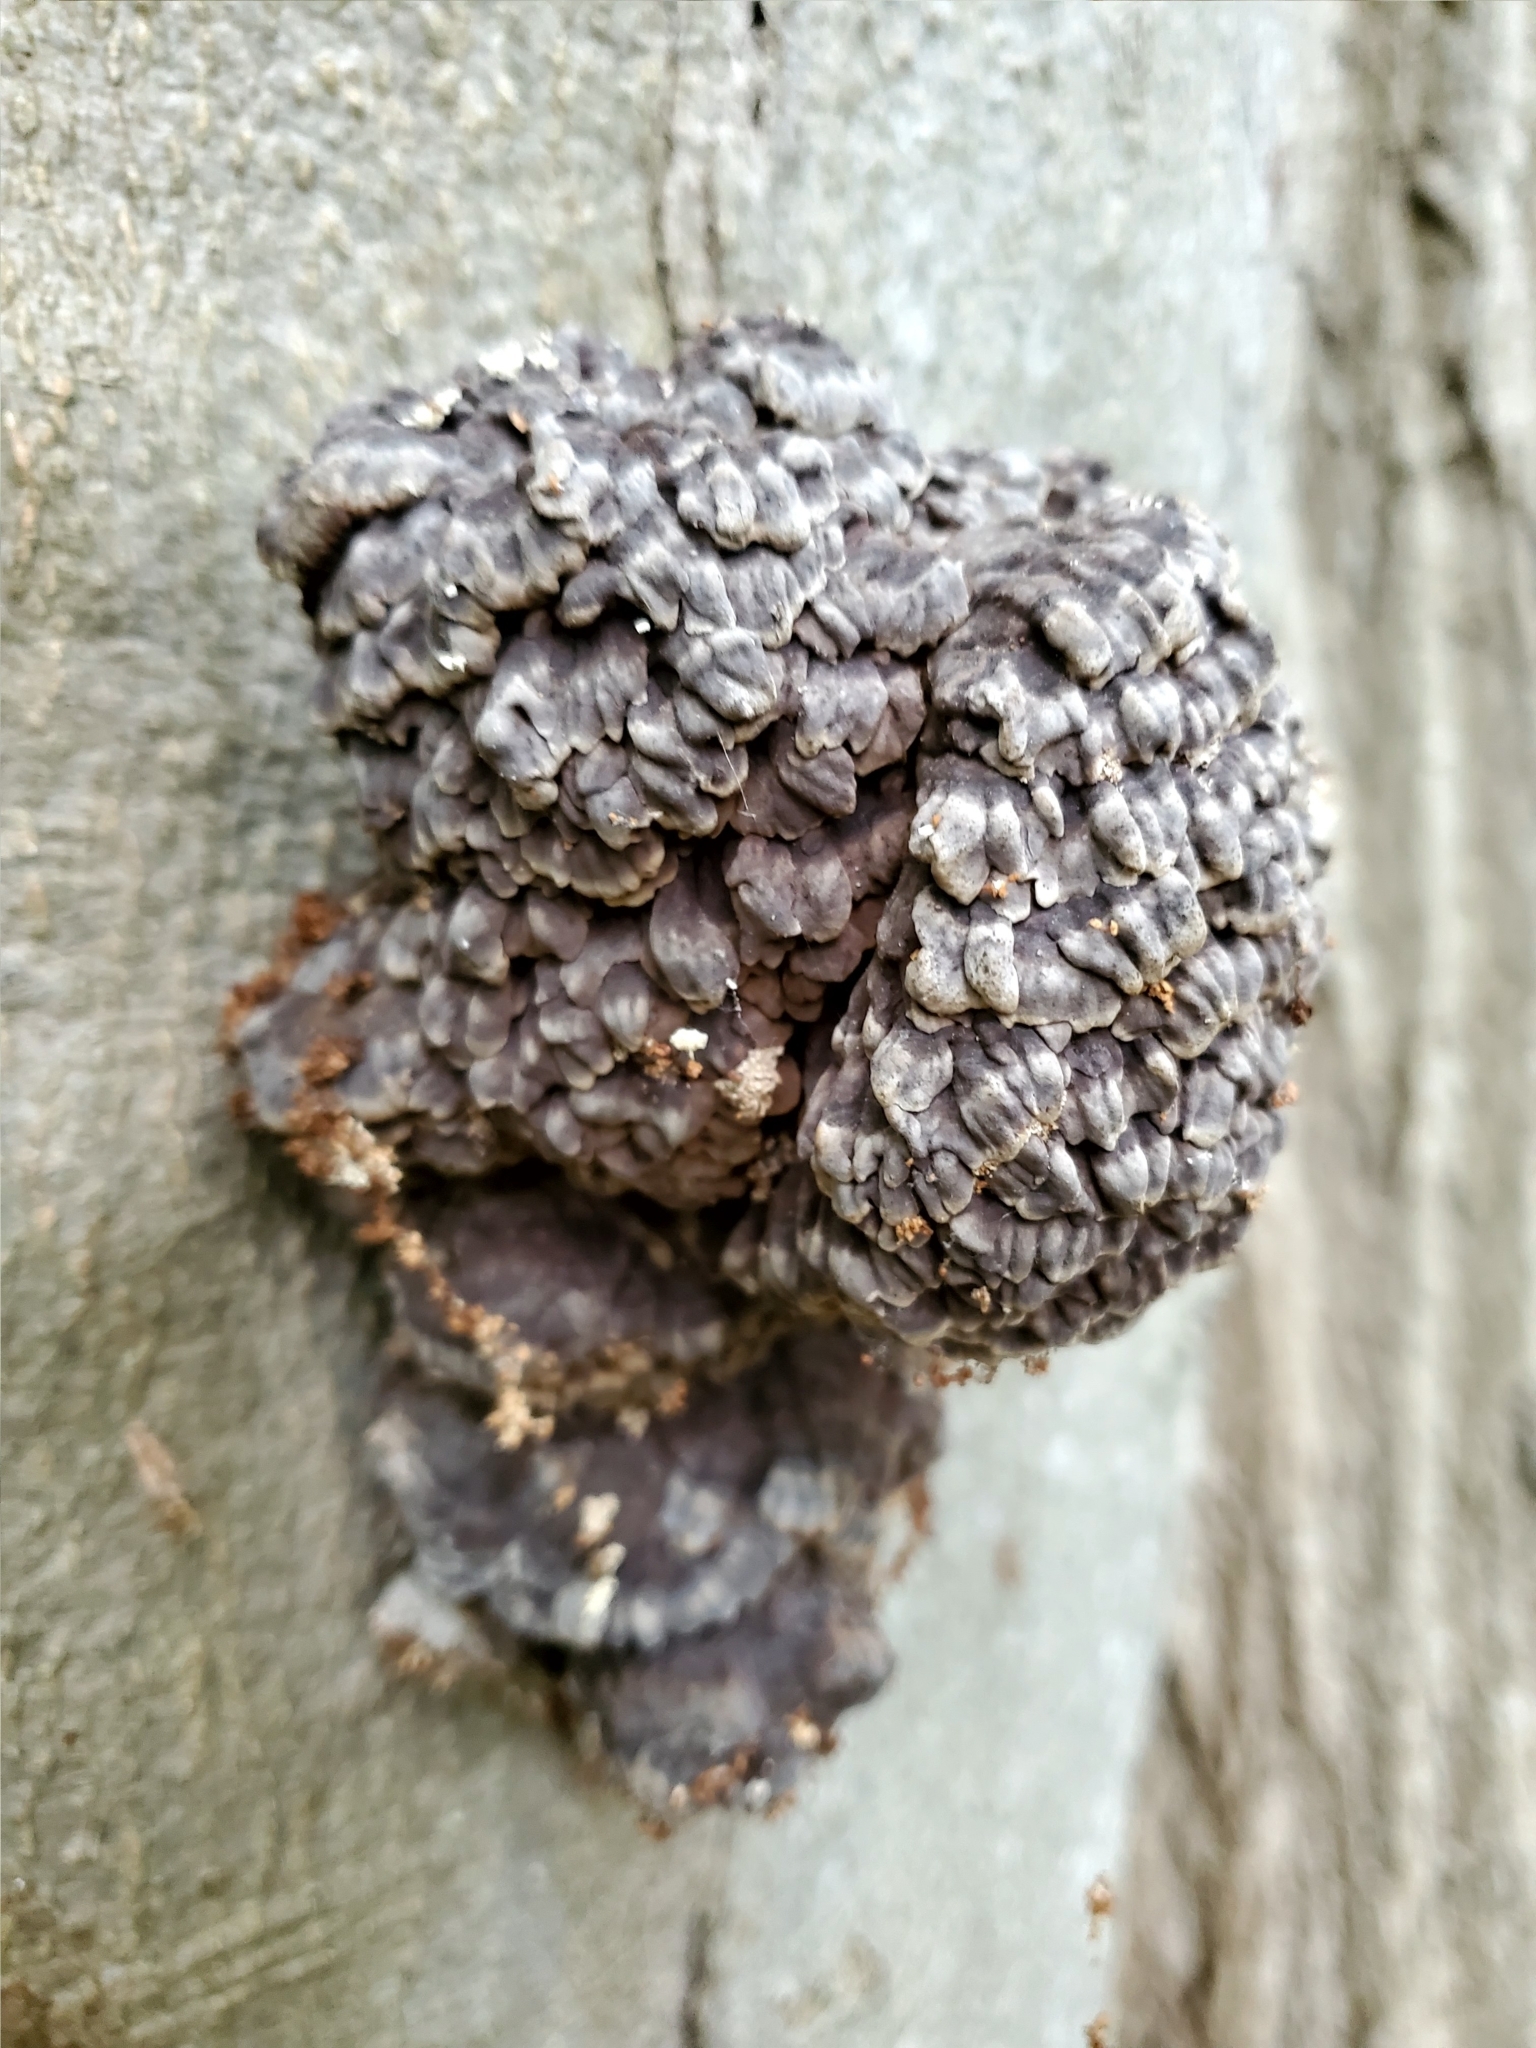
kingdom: Fungi
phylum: Basidiomycota
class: Agaricomycetes
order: Polyporales
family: Polyporaceae
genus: Globifomes
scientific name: Globifomes graveolens
